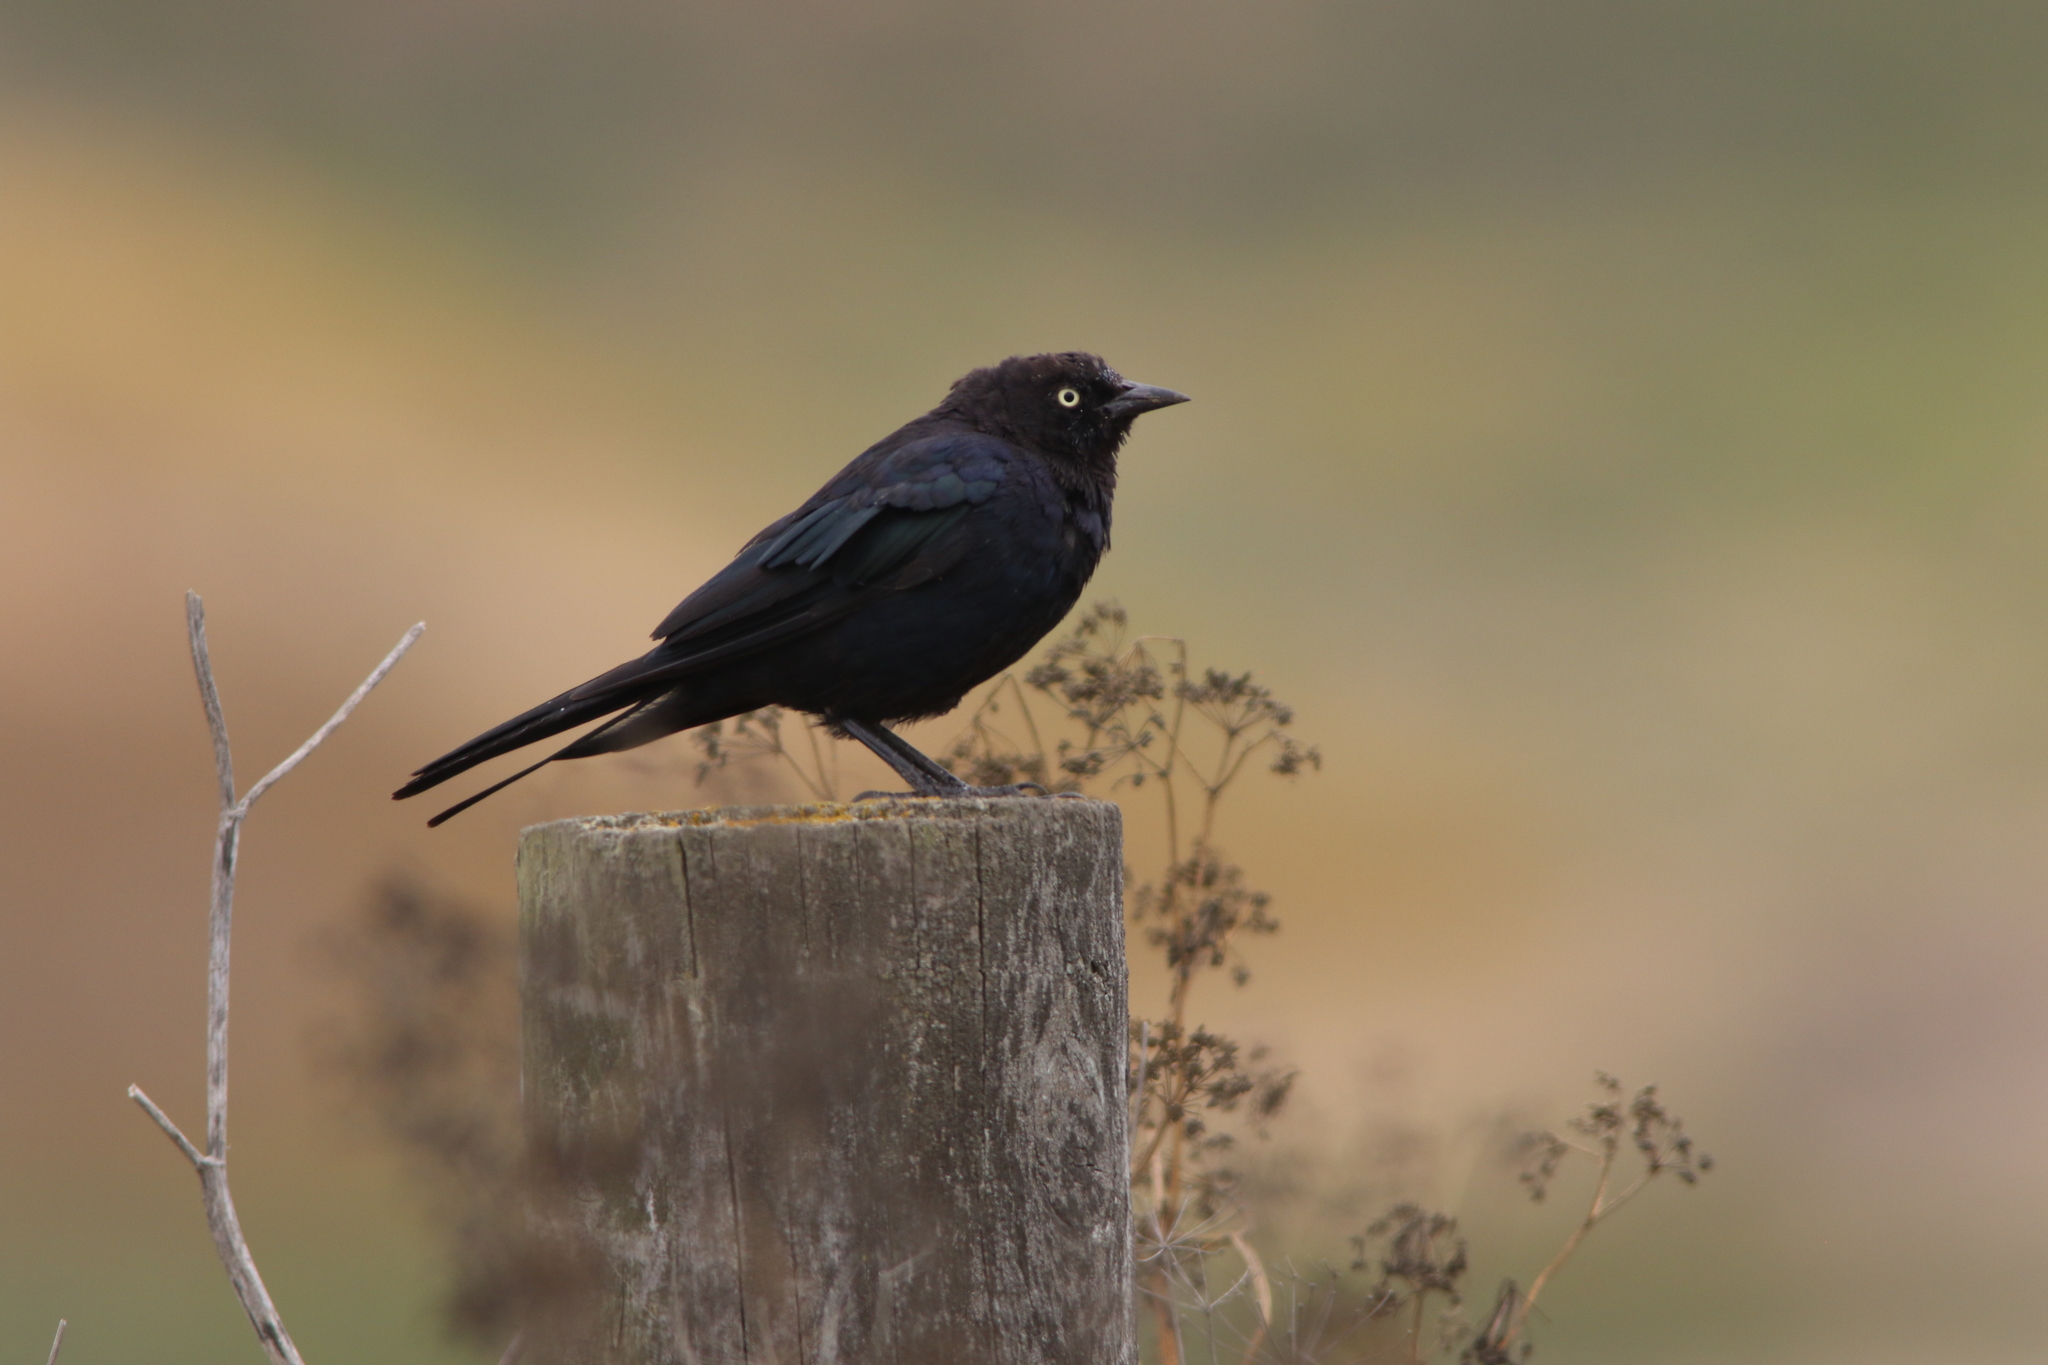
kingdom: Animalia
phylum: Chordata
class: Aves
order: Passeriformes
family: Icteridae
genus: Euphagus
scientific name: Euphagus cyanocephalus
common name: Brewer's blackbird
